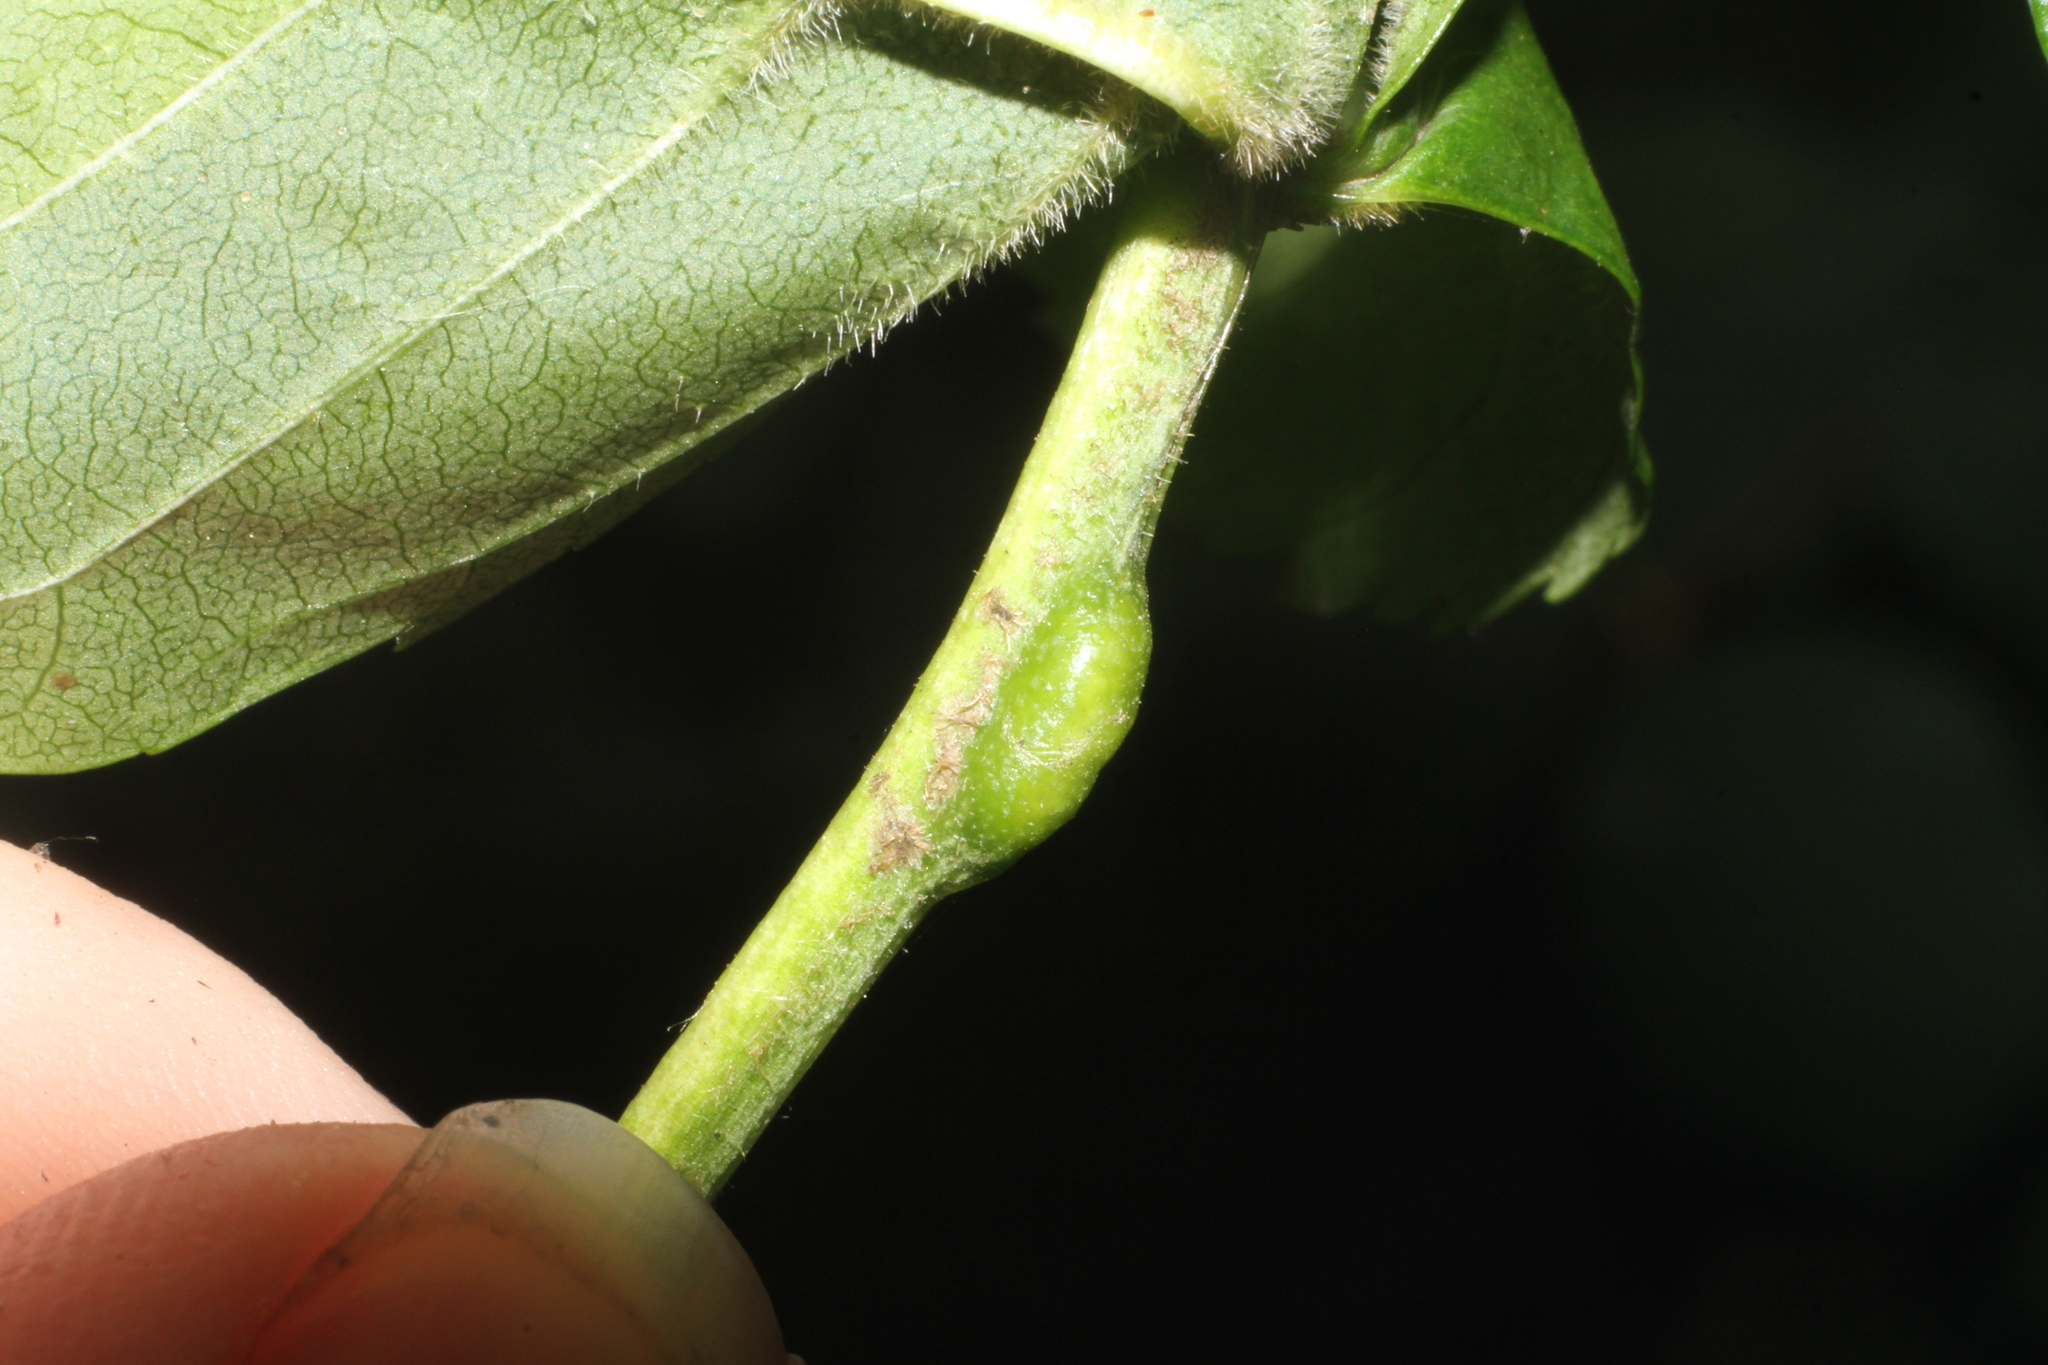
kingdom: Animalia
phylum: Arthropoda
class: Insecta
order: Diptera
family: Cecidomyiidae
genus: Dasineura
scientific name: Dasineura fraxini
